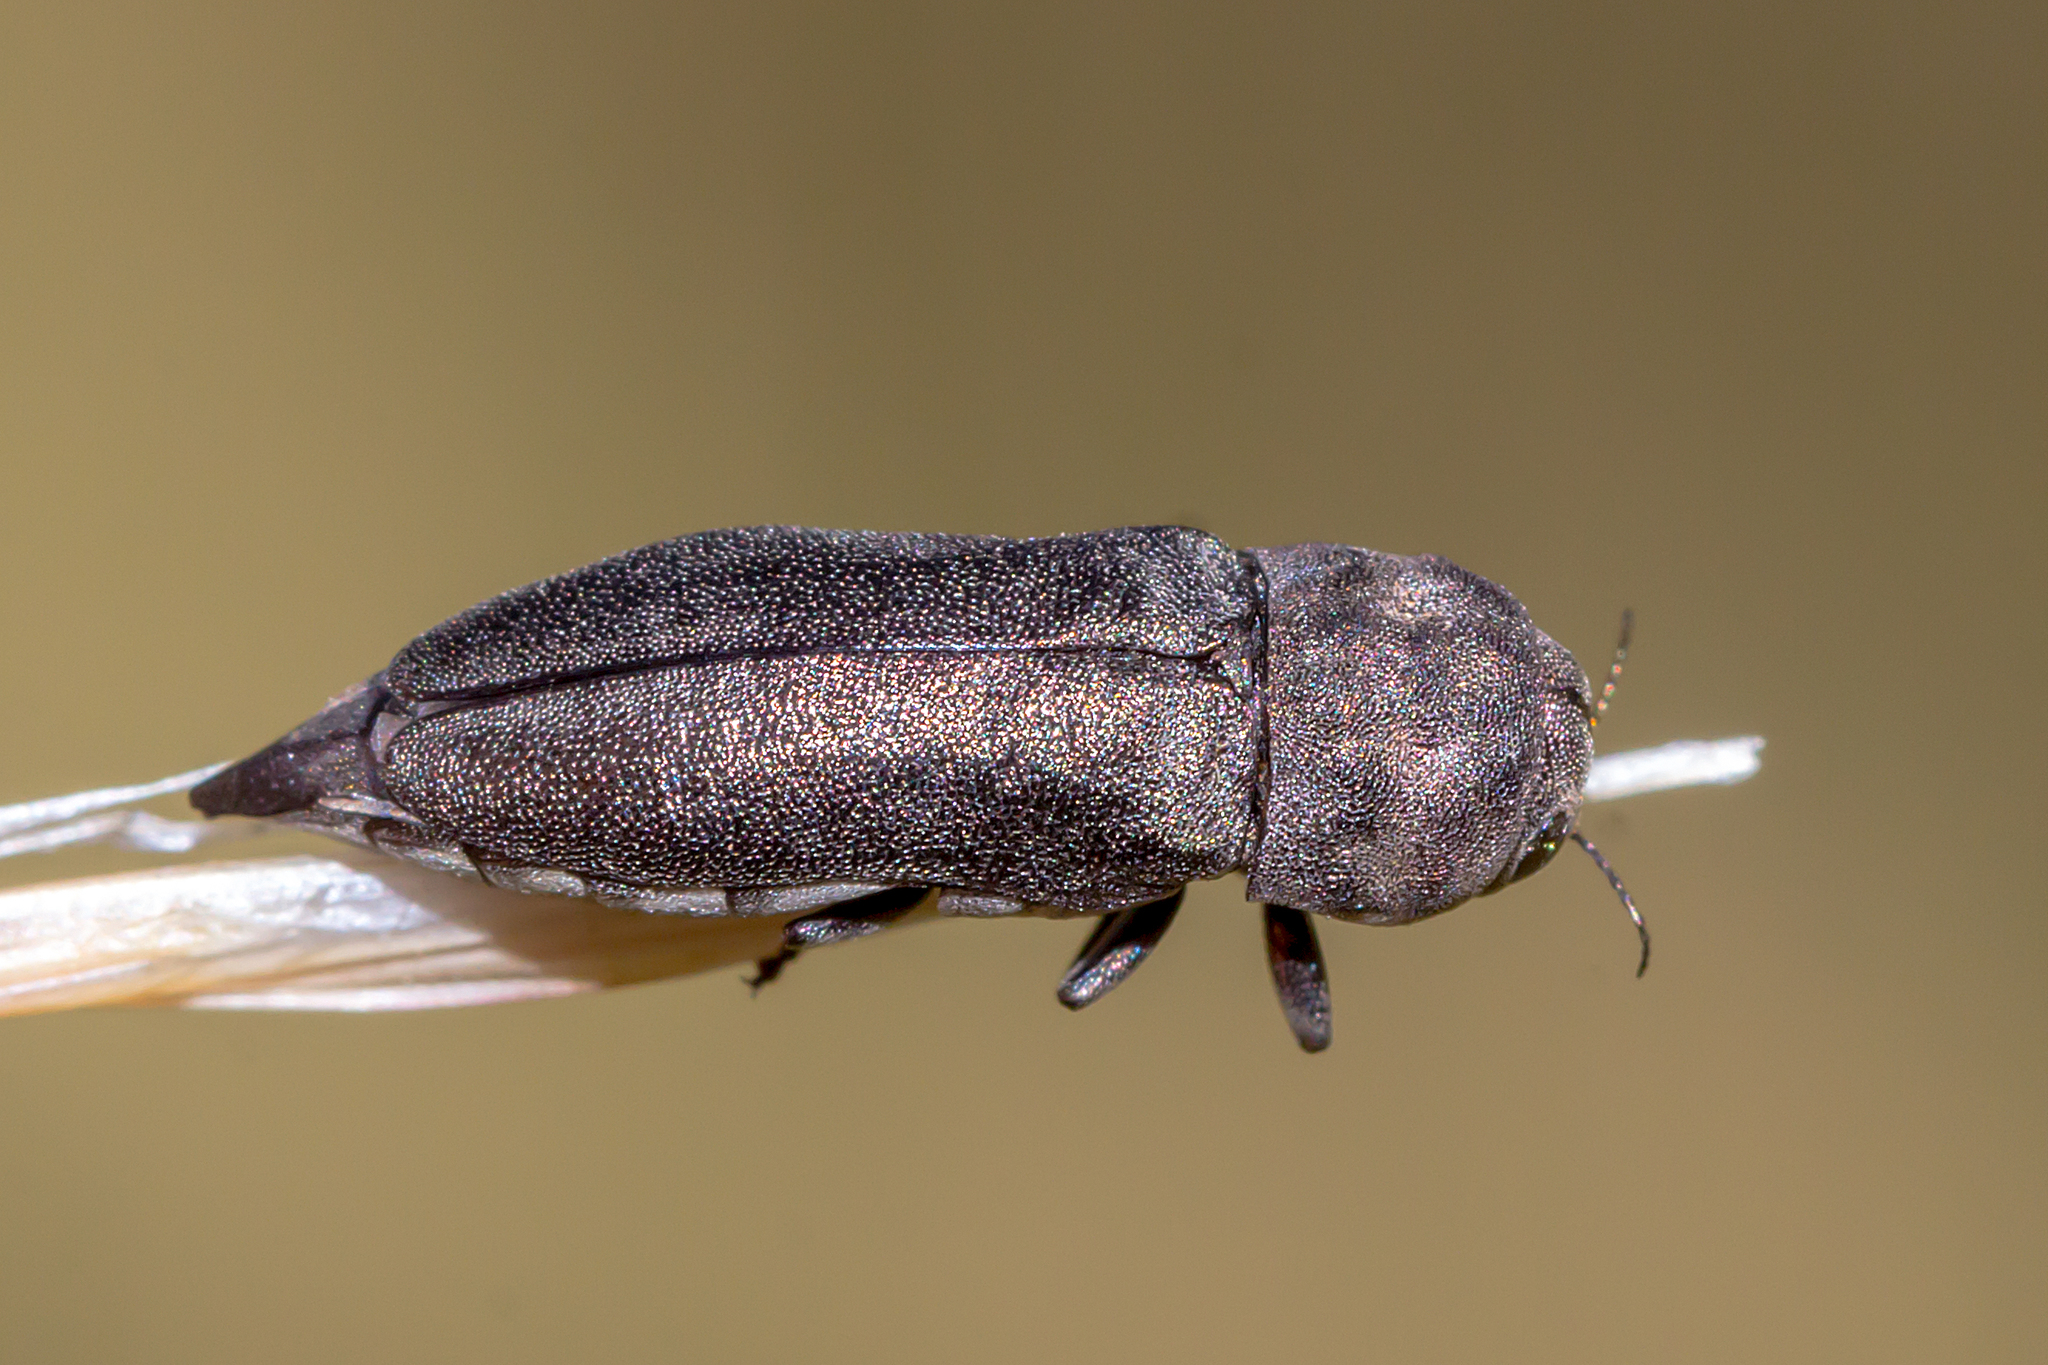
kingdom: Animalia
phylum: Arthropoda
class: Insecta
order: Coleoptera
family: Buprestidae
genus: Dinocephalia
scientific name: Dinocephalia thoracica
